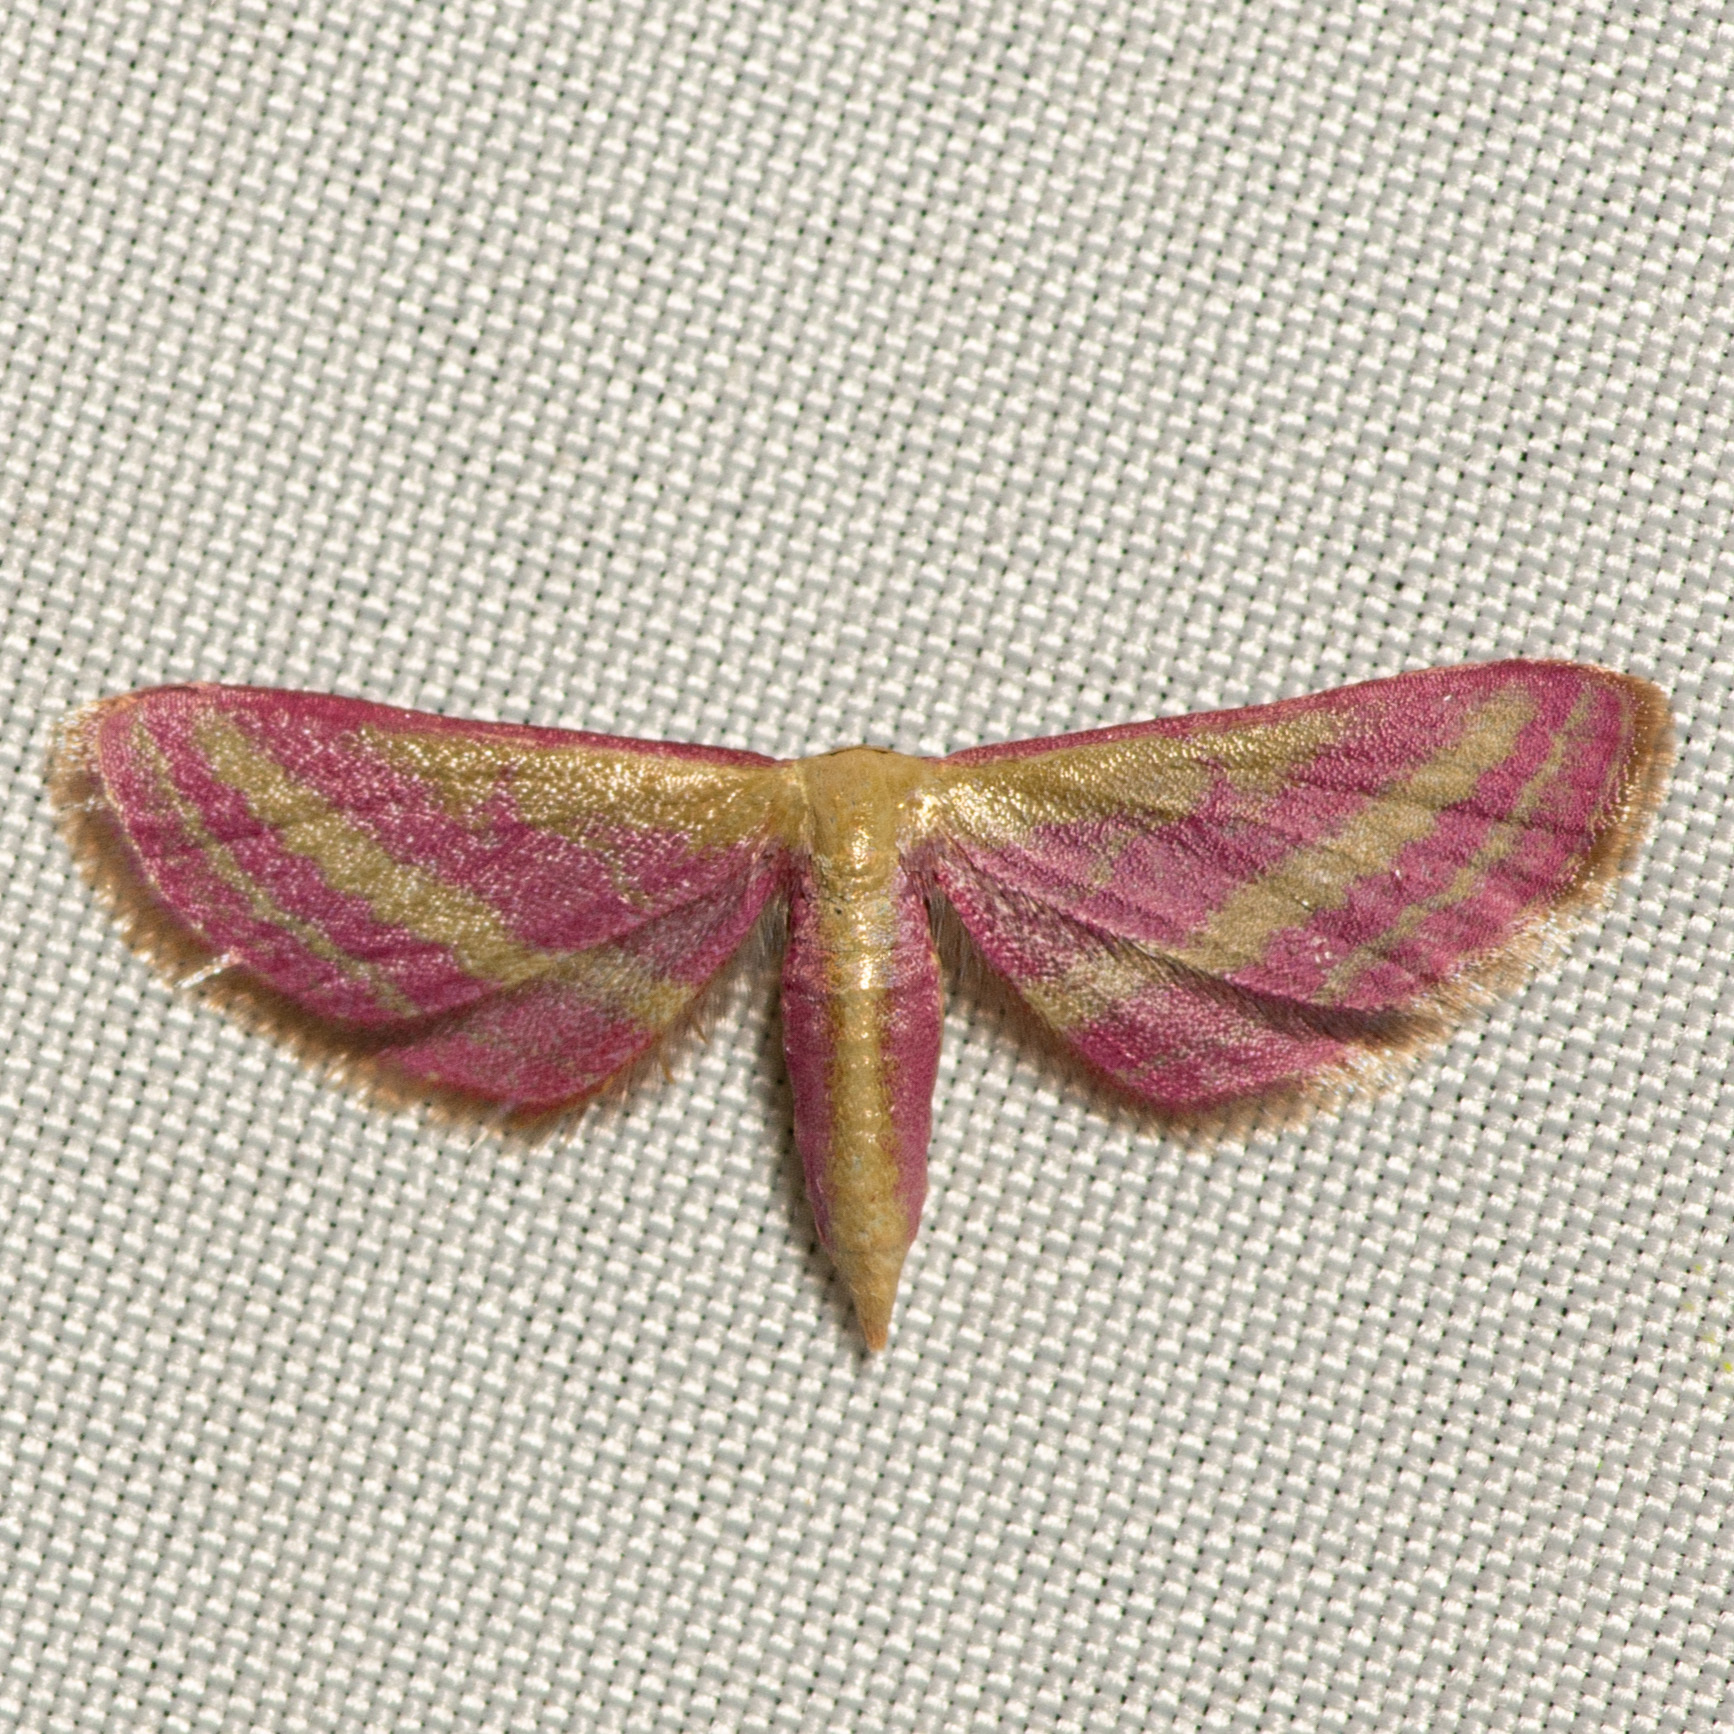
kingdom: Animalia
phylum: Arthropoda
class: Insecta
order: Lepidoptera
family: Geometridae
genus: Leptostales
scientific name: Leptostales laevitaria
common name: Raspberry wave moth
